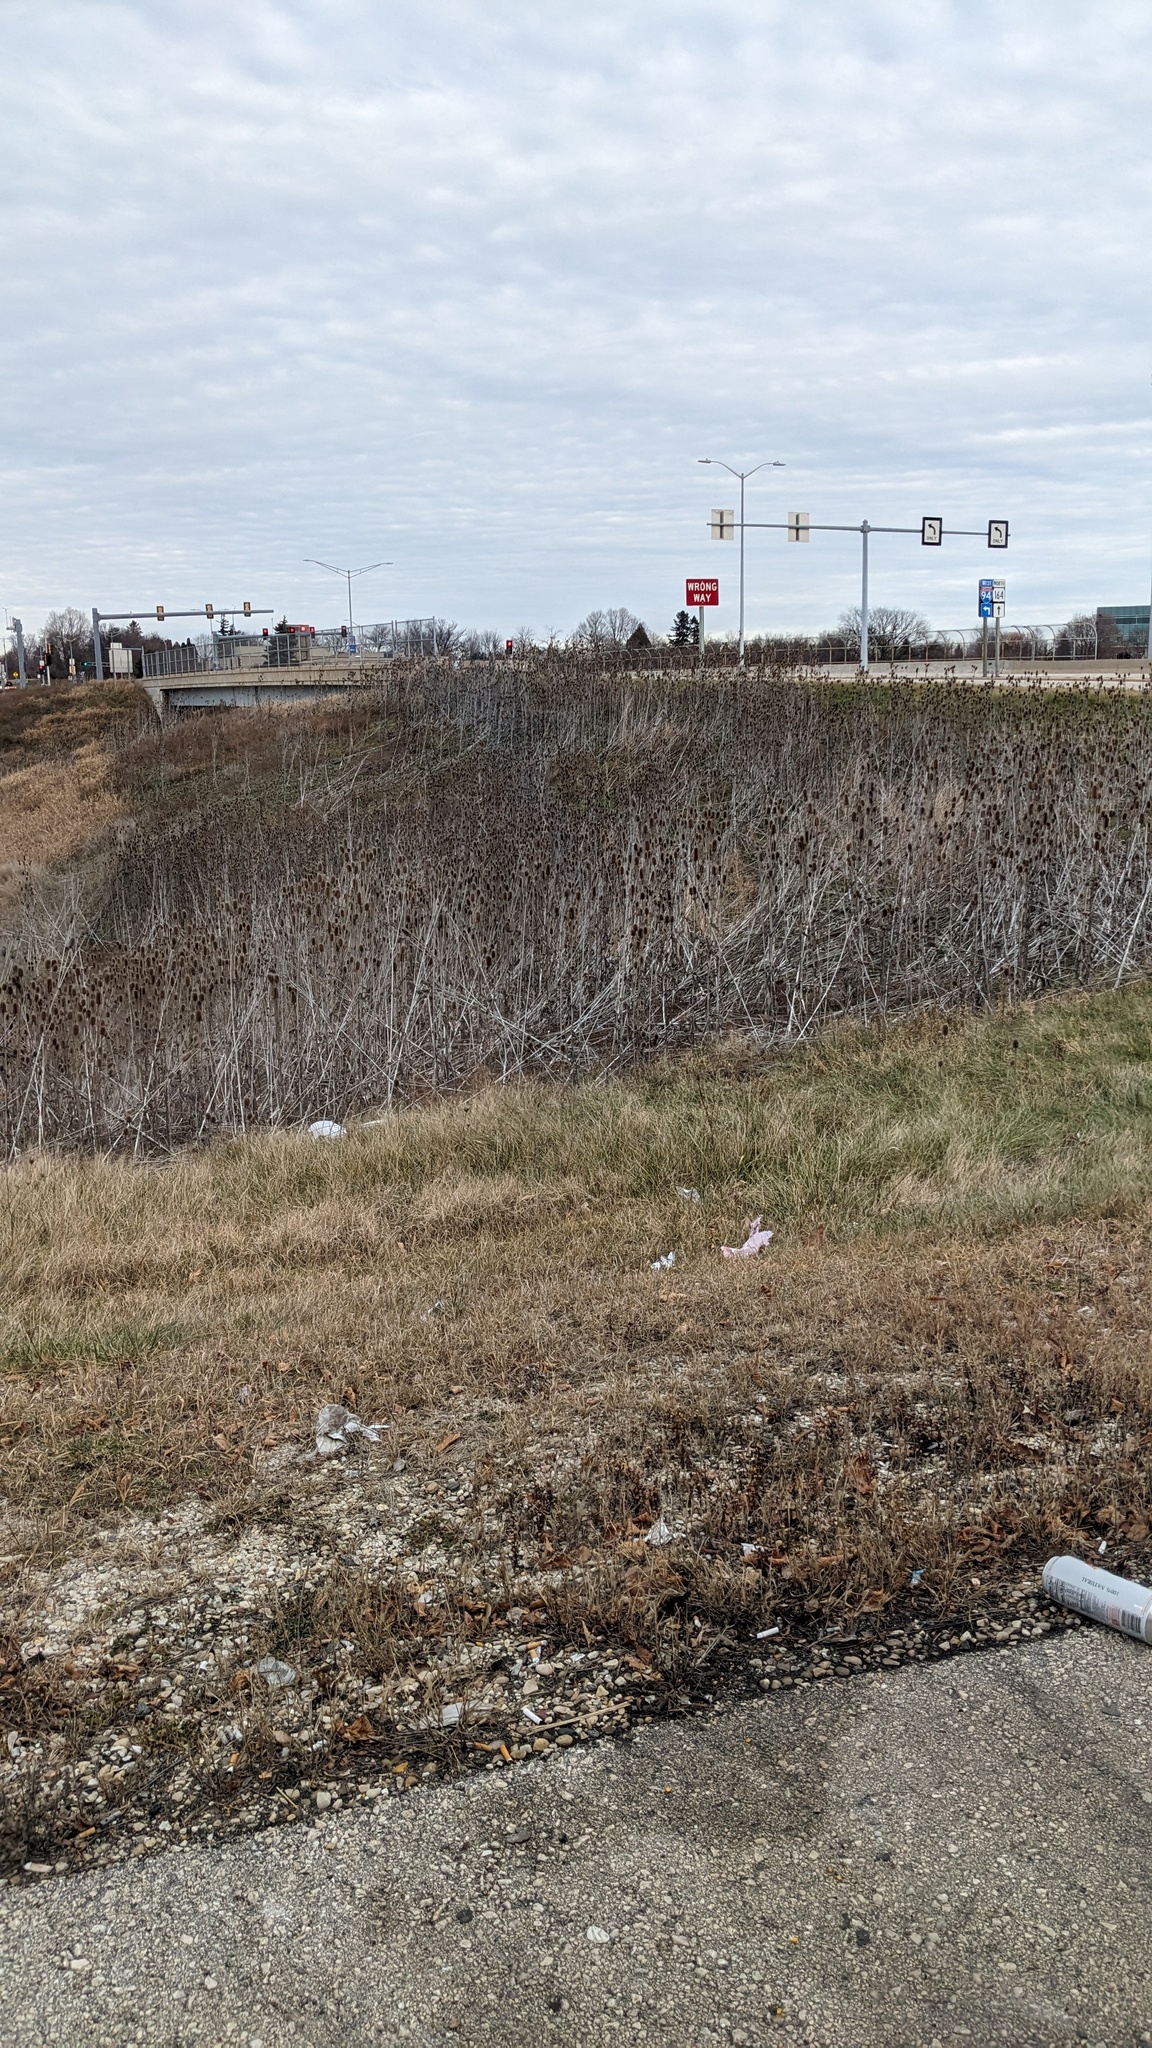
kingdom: Plantae
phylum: Tracheophyta
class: Magnoliopsida
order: Dipsacales
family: Caprifoliaceae
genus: Dipsacus
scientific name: Dipsacus laciniatus
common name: Cut-leaved teasel
